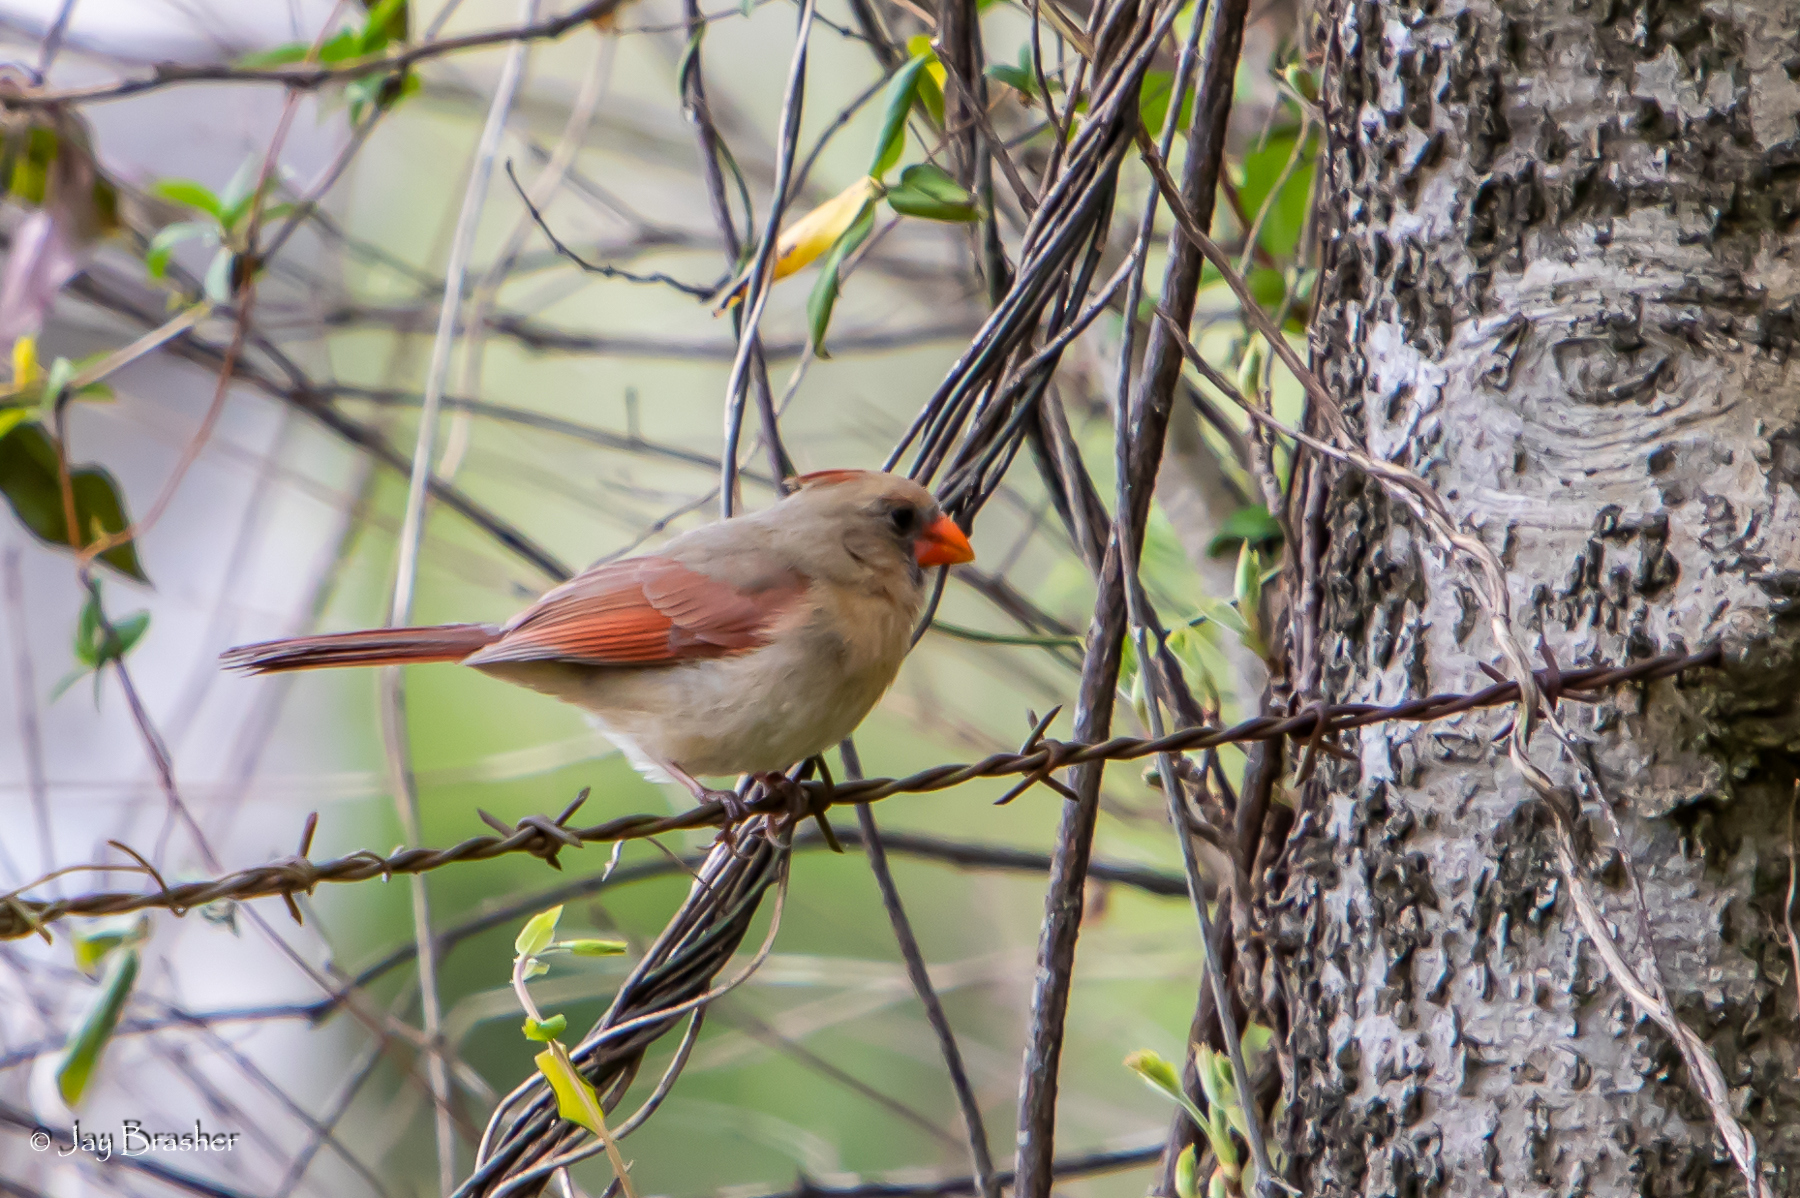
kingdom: Animalia
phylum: Chordata
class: Aves
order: Passeriformes
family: Cardinalidae
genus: Cardinalis
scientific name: Cardinalis cardinalis
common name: Northern cardinal
